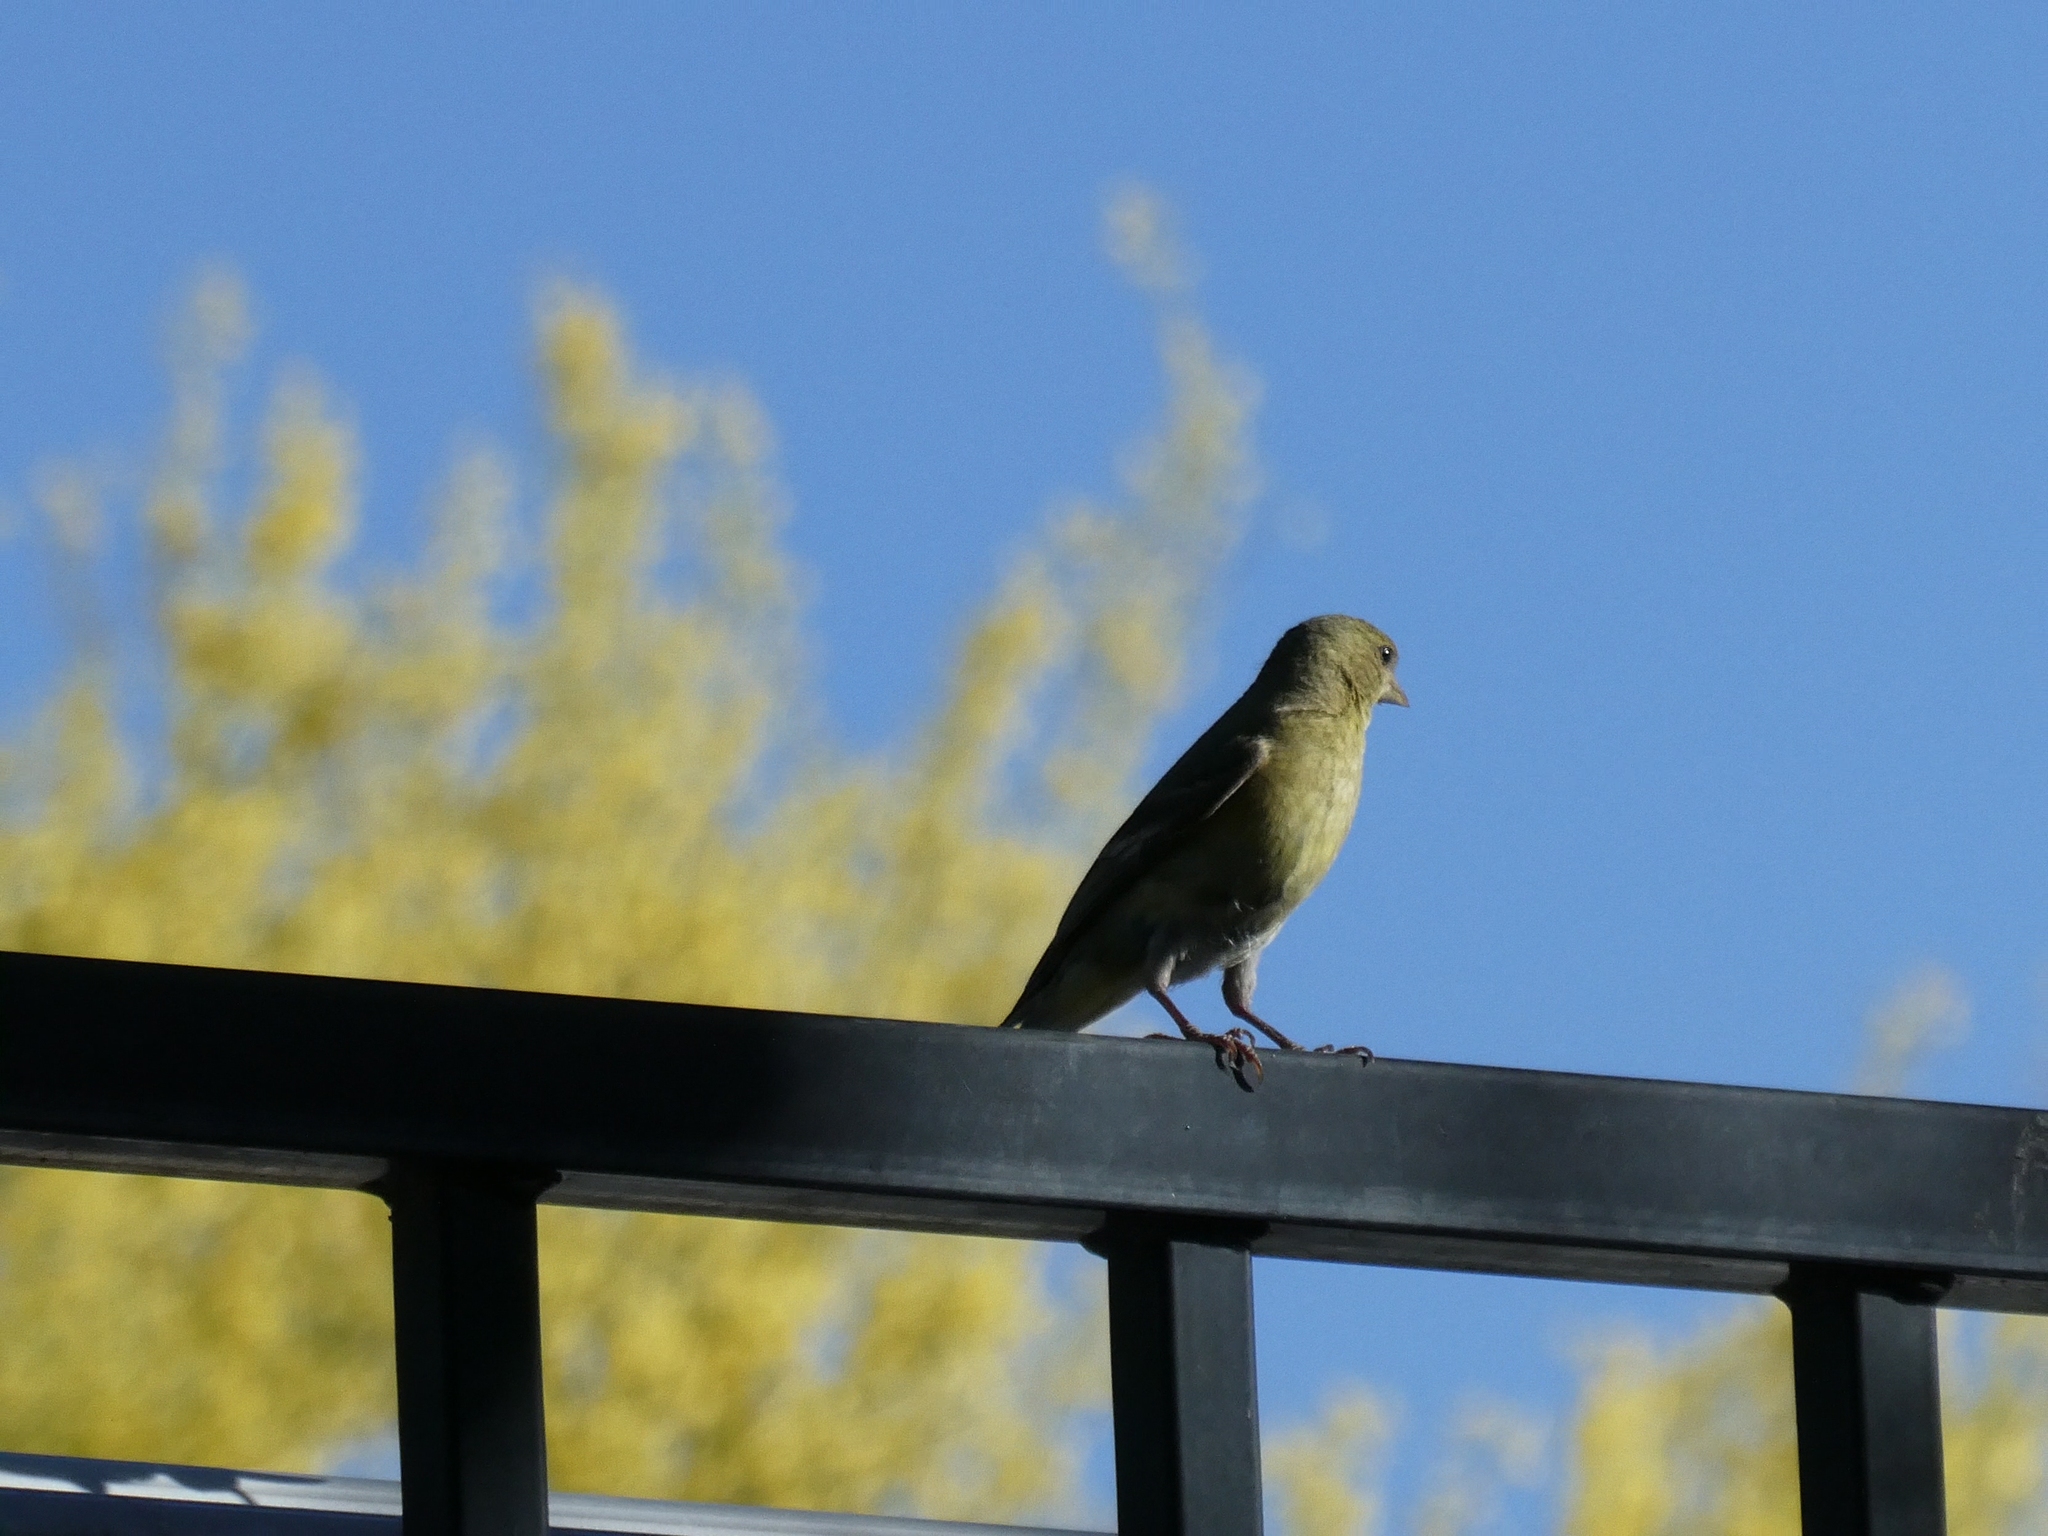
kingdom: Animalia
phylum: Chordata
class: Aves
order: Passeriformes
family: Fringillidae
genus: Spinus
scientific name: Spinus psaltria
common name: Lesser goldfinch
